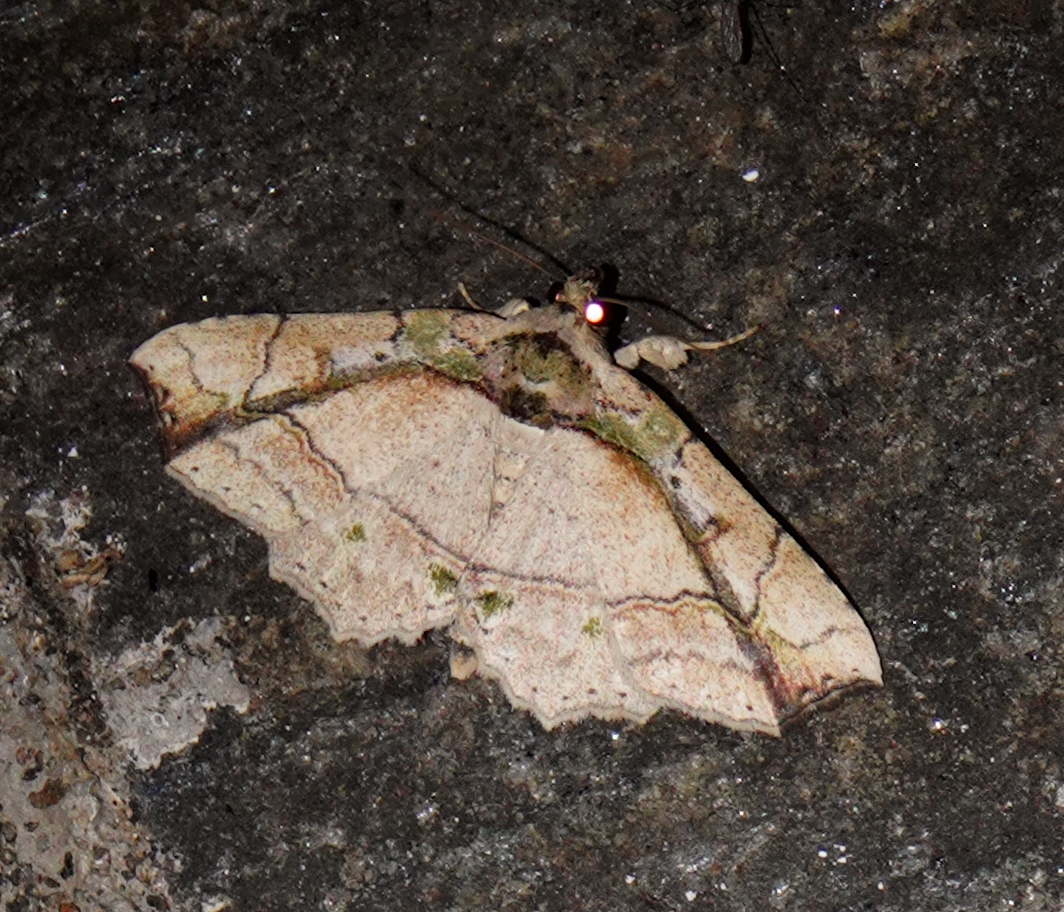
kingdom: Animalia
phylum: Arthropoda
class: Insecta
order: Lepidoptera
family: Erebidae
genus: Tamba
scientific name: Tamba lala
